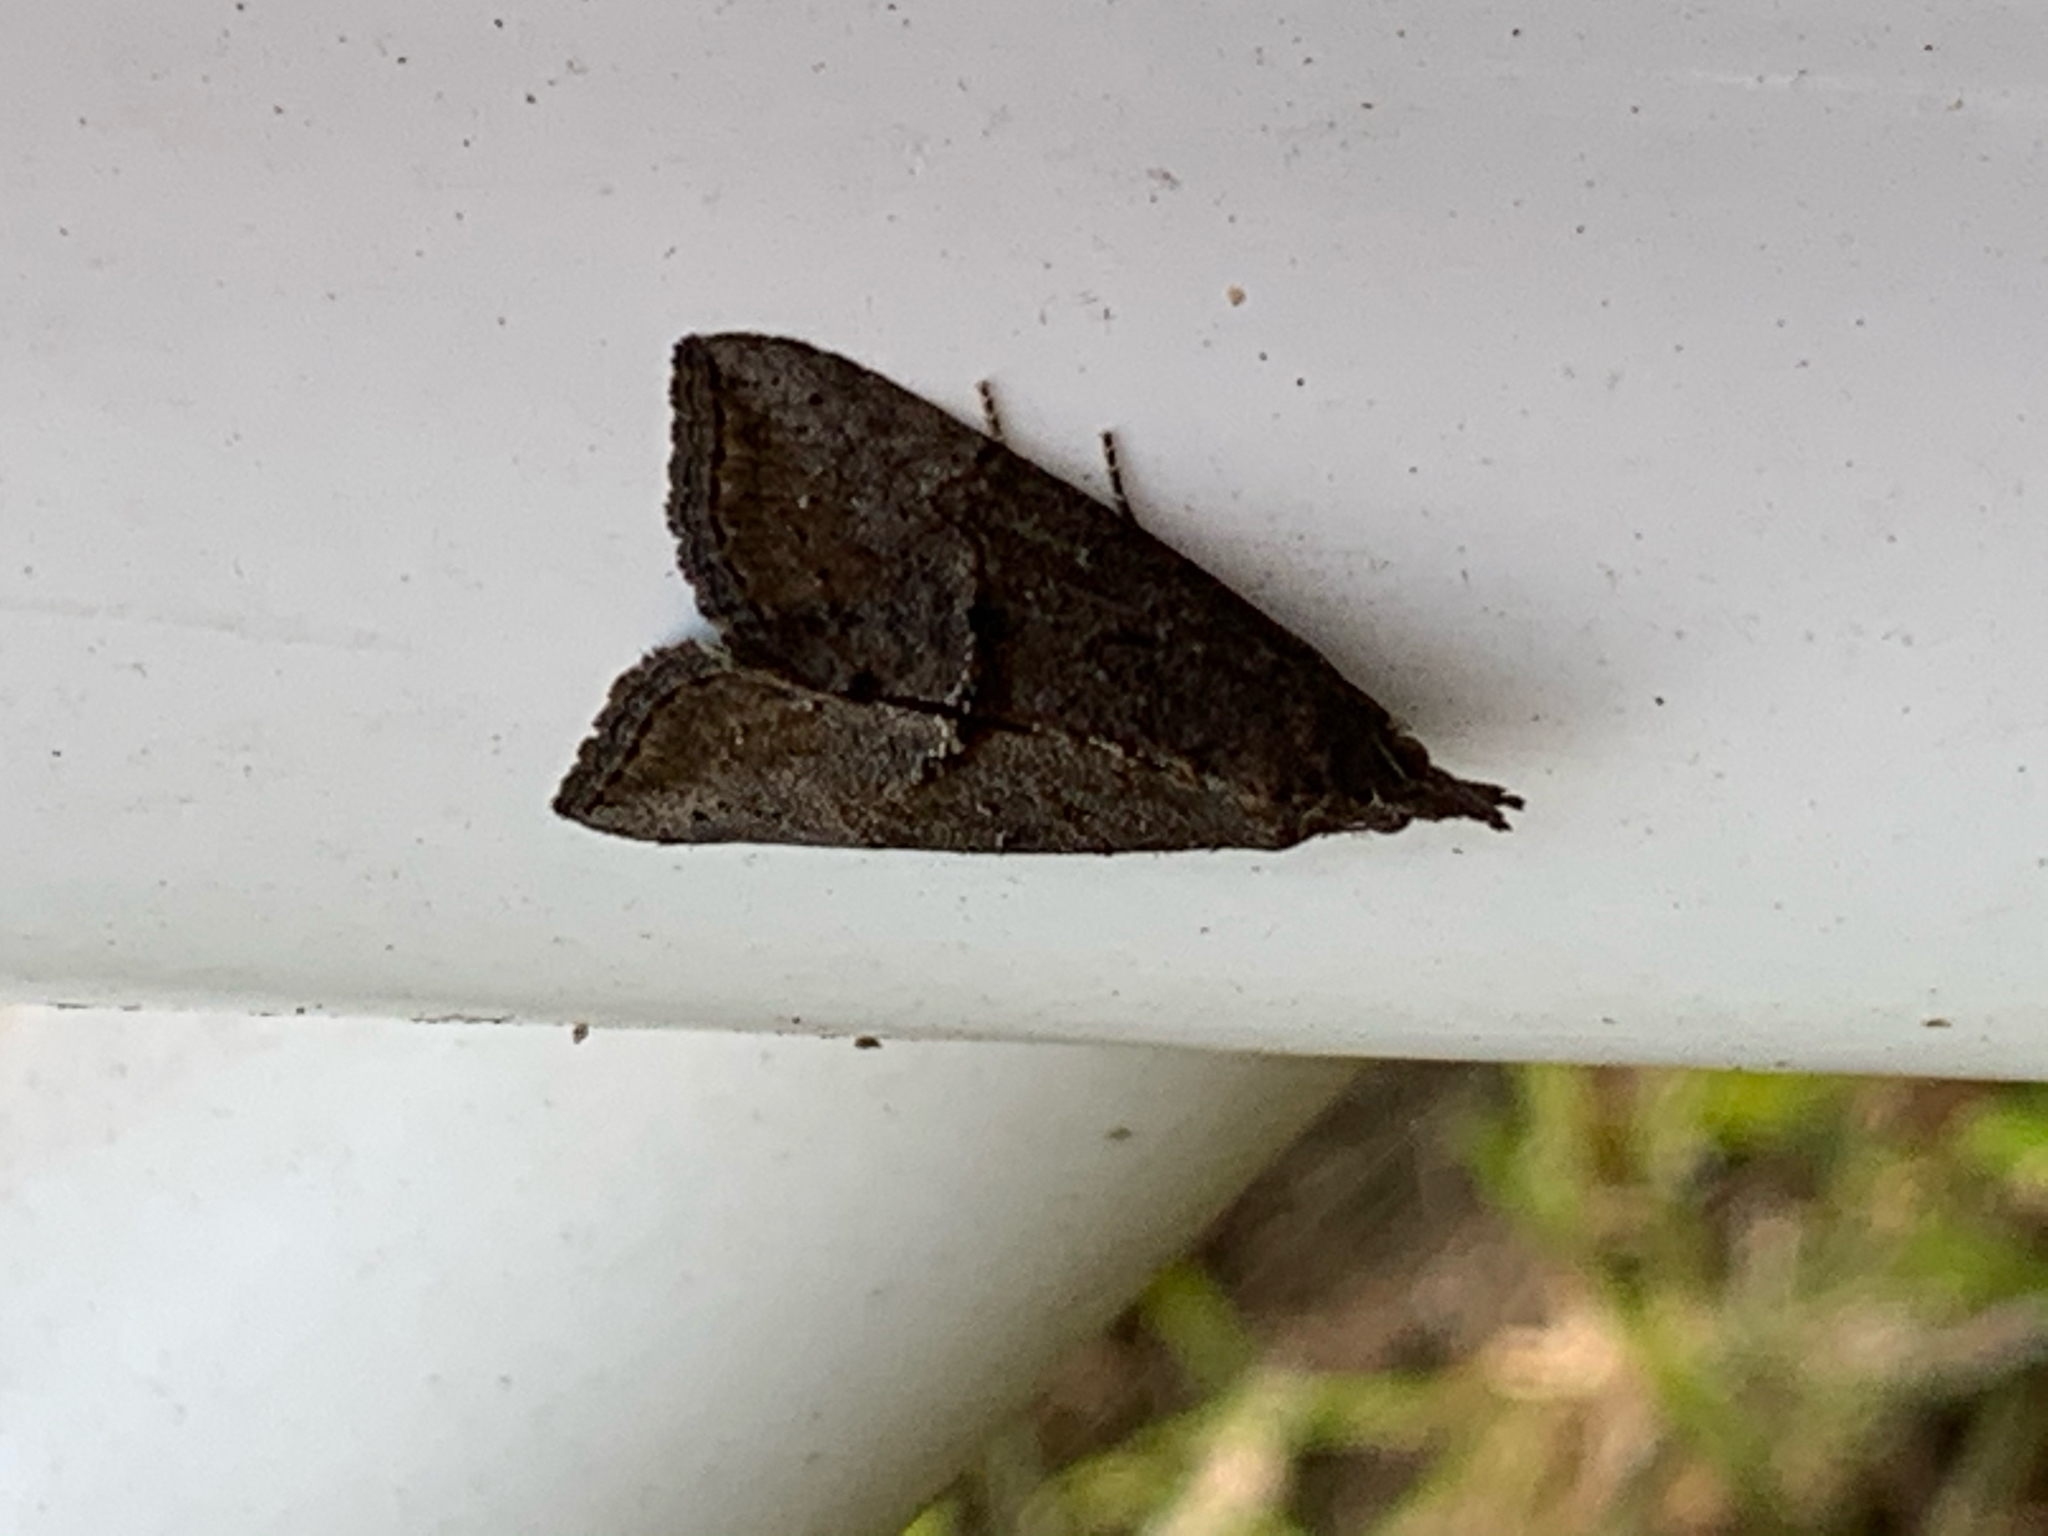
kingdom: Animalia
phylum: Arthropoda
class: Insecta
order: Lepidoptera
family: Erebidae
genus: Hypena
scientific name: Hypena scabra
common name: Green cloverworm
